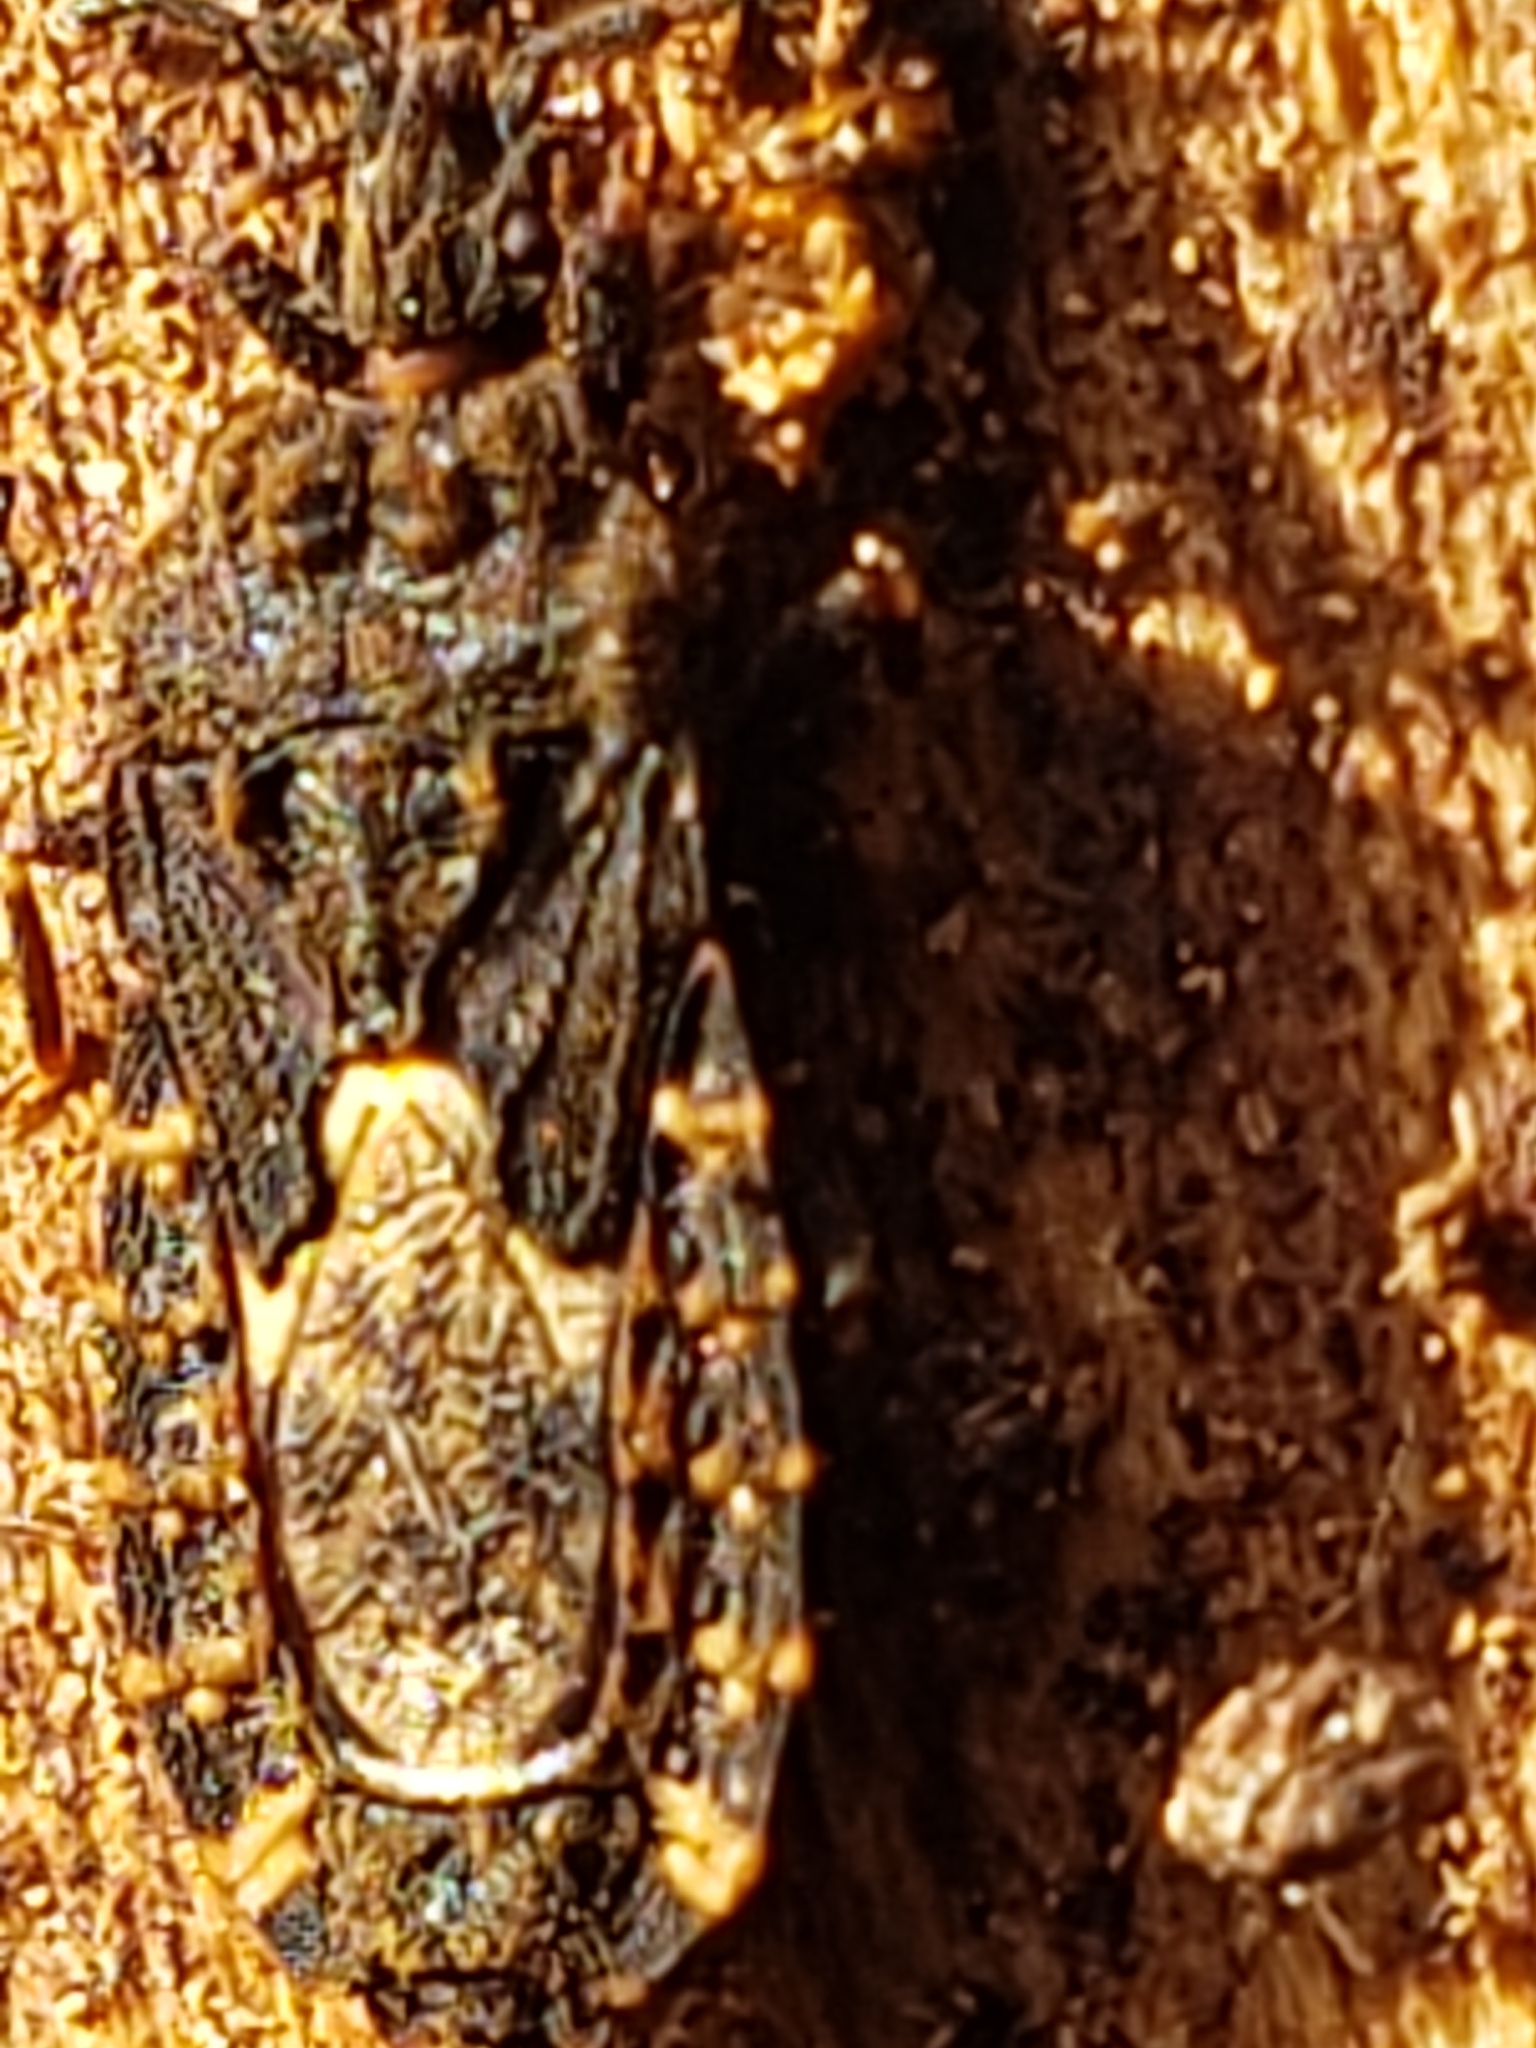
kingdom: Animalia
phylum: Arthropoda
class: Insecta
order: Hemiptera
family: Aradidae
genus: Mezira
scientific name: Mezira
